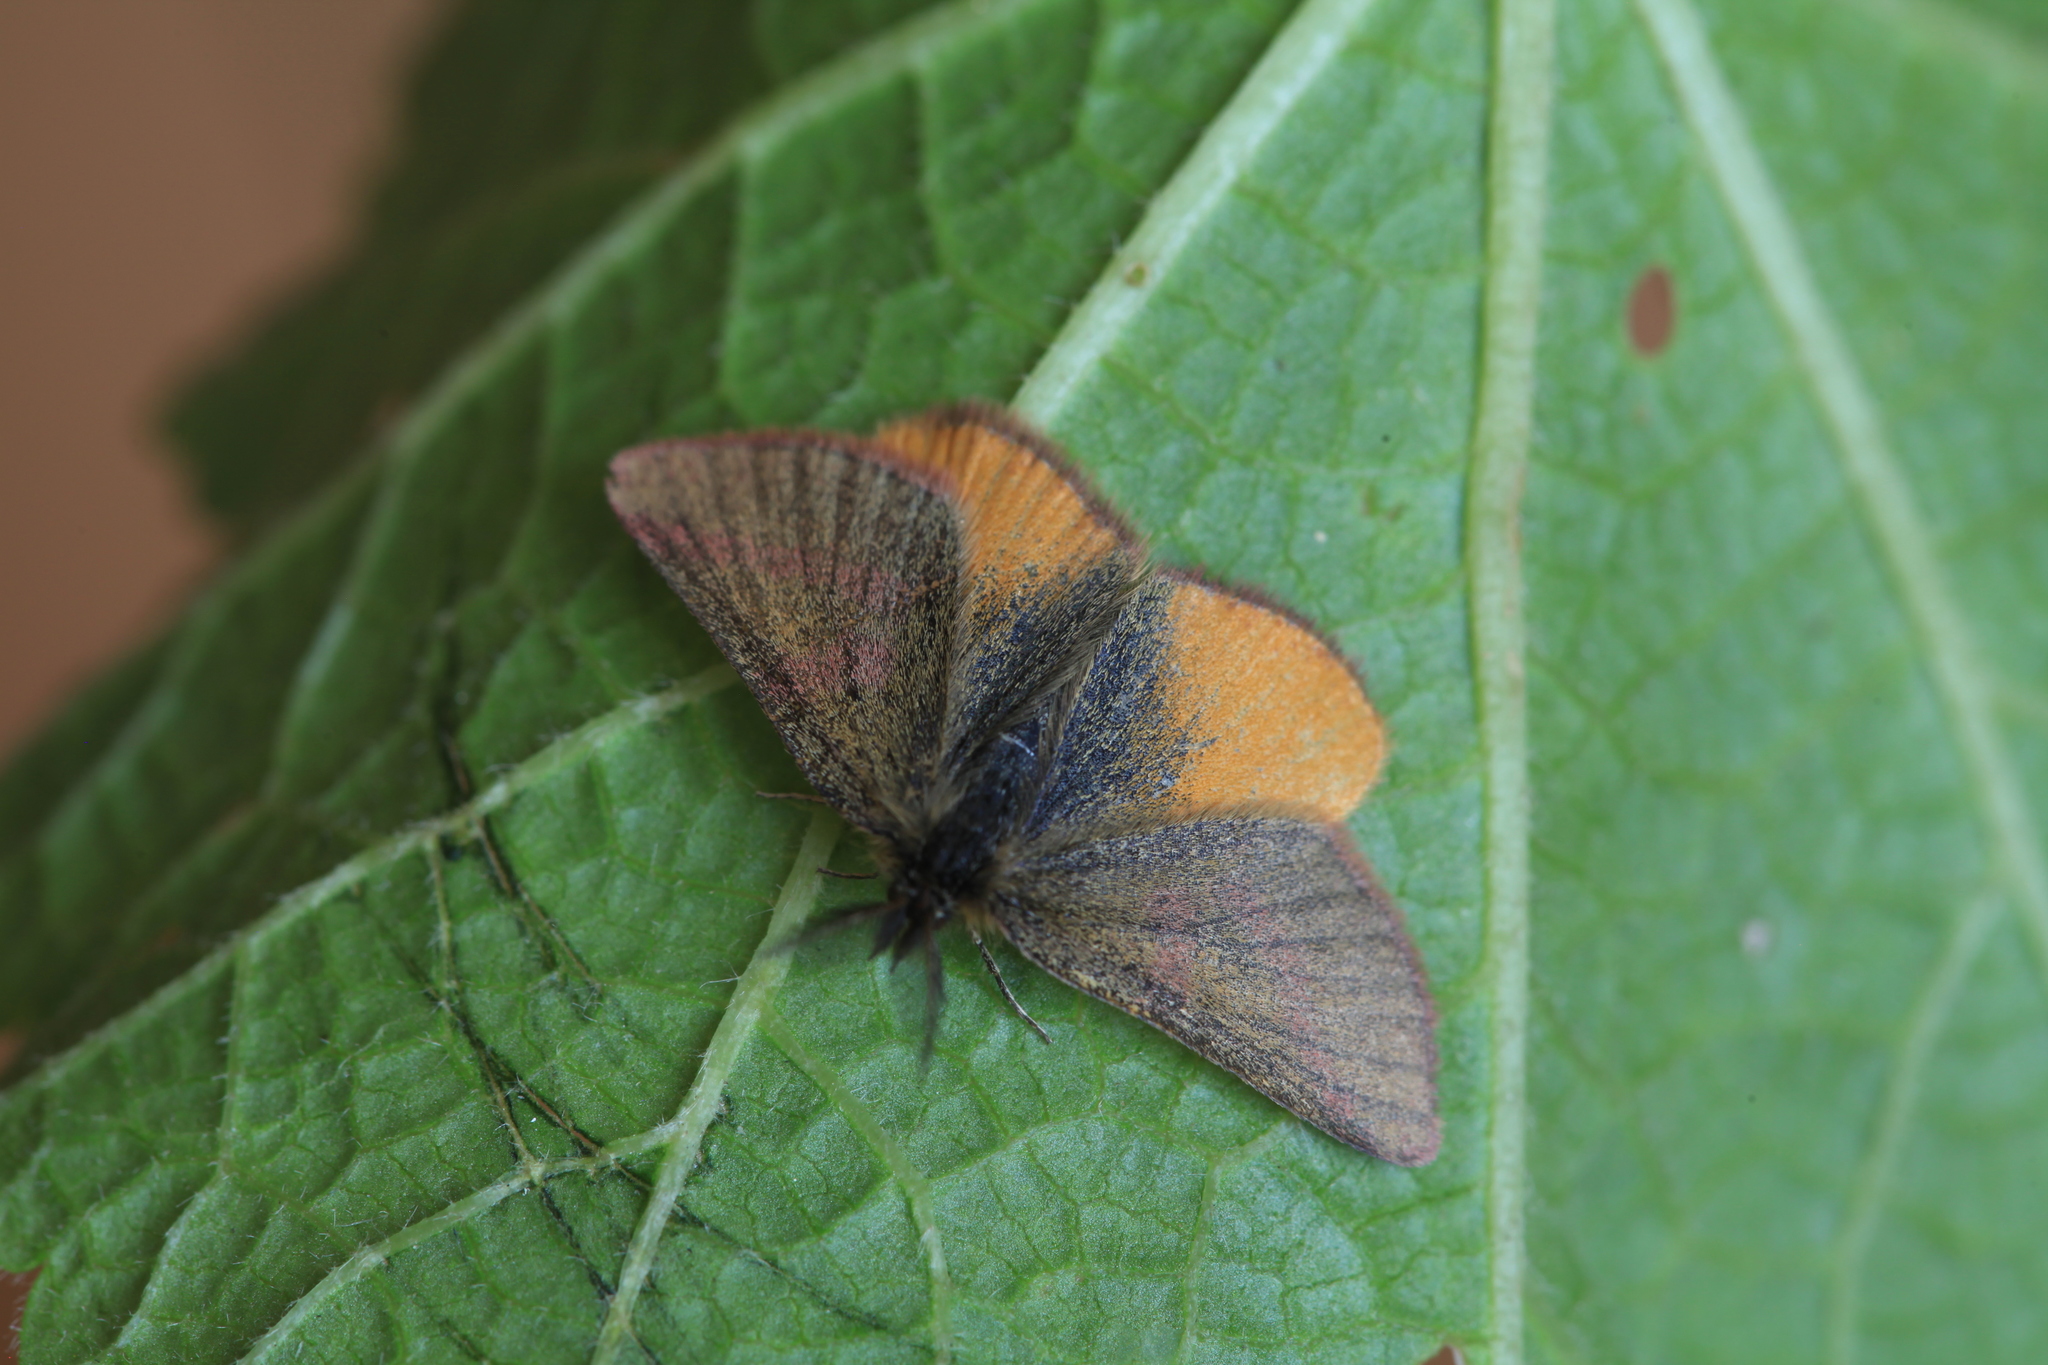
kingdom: Animalia
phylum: Arthropoda
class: Insecta
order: Lepidoptera
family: Geometridae
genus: Lythria
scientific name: Lythria purpuraria
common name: Purple-barred yellow
